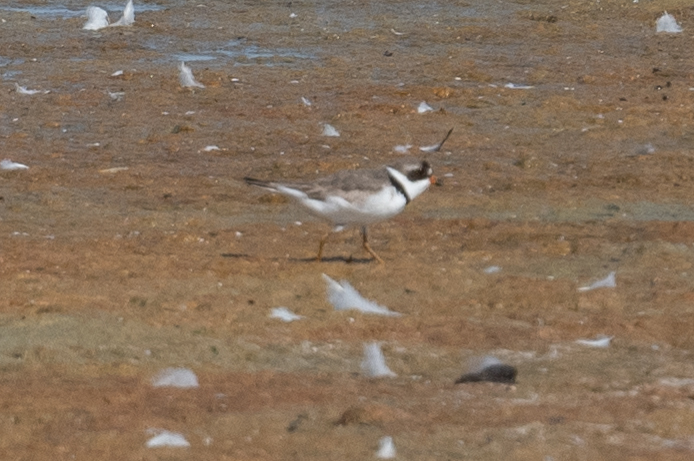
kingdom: Animalia
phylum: Chordata
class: Aves
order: Charadriiformes
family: Charadriidae
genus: Charadrius
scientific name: Charadrius semipalmatus
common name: Semipalmated plover
